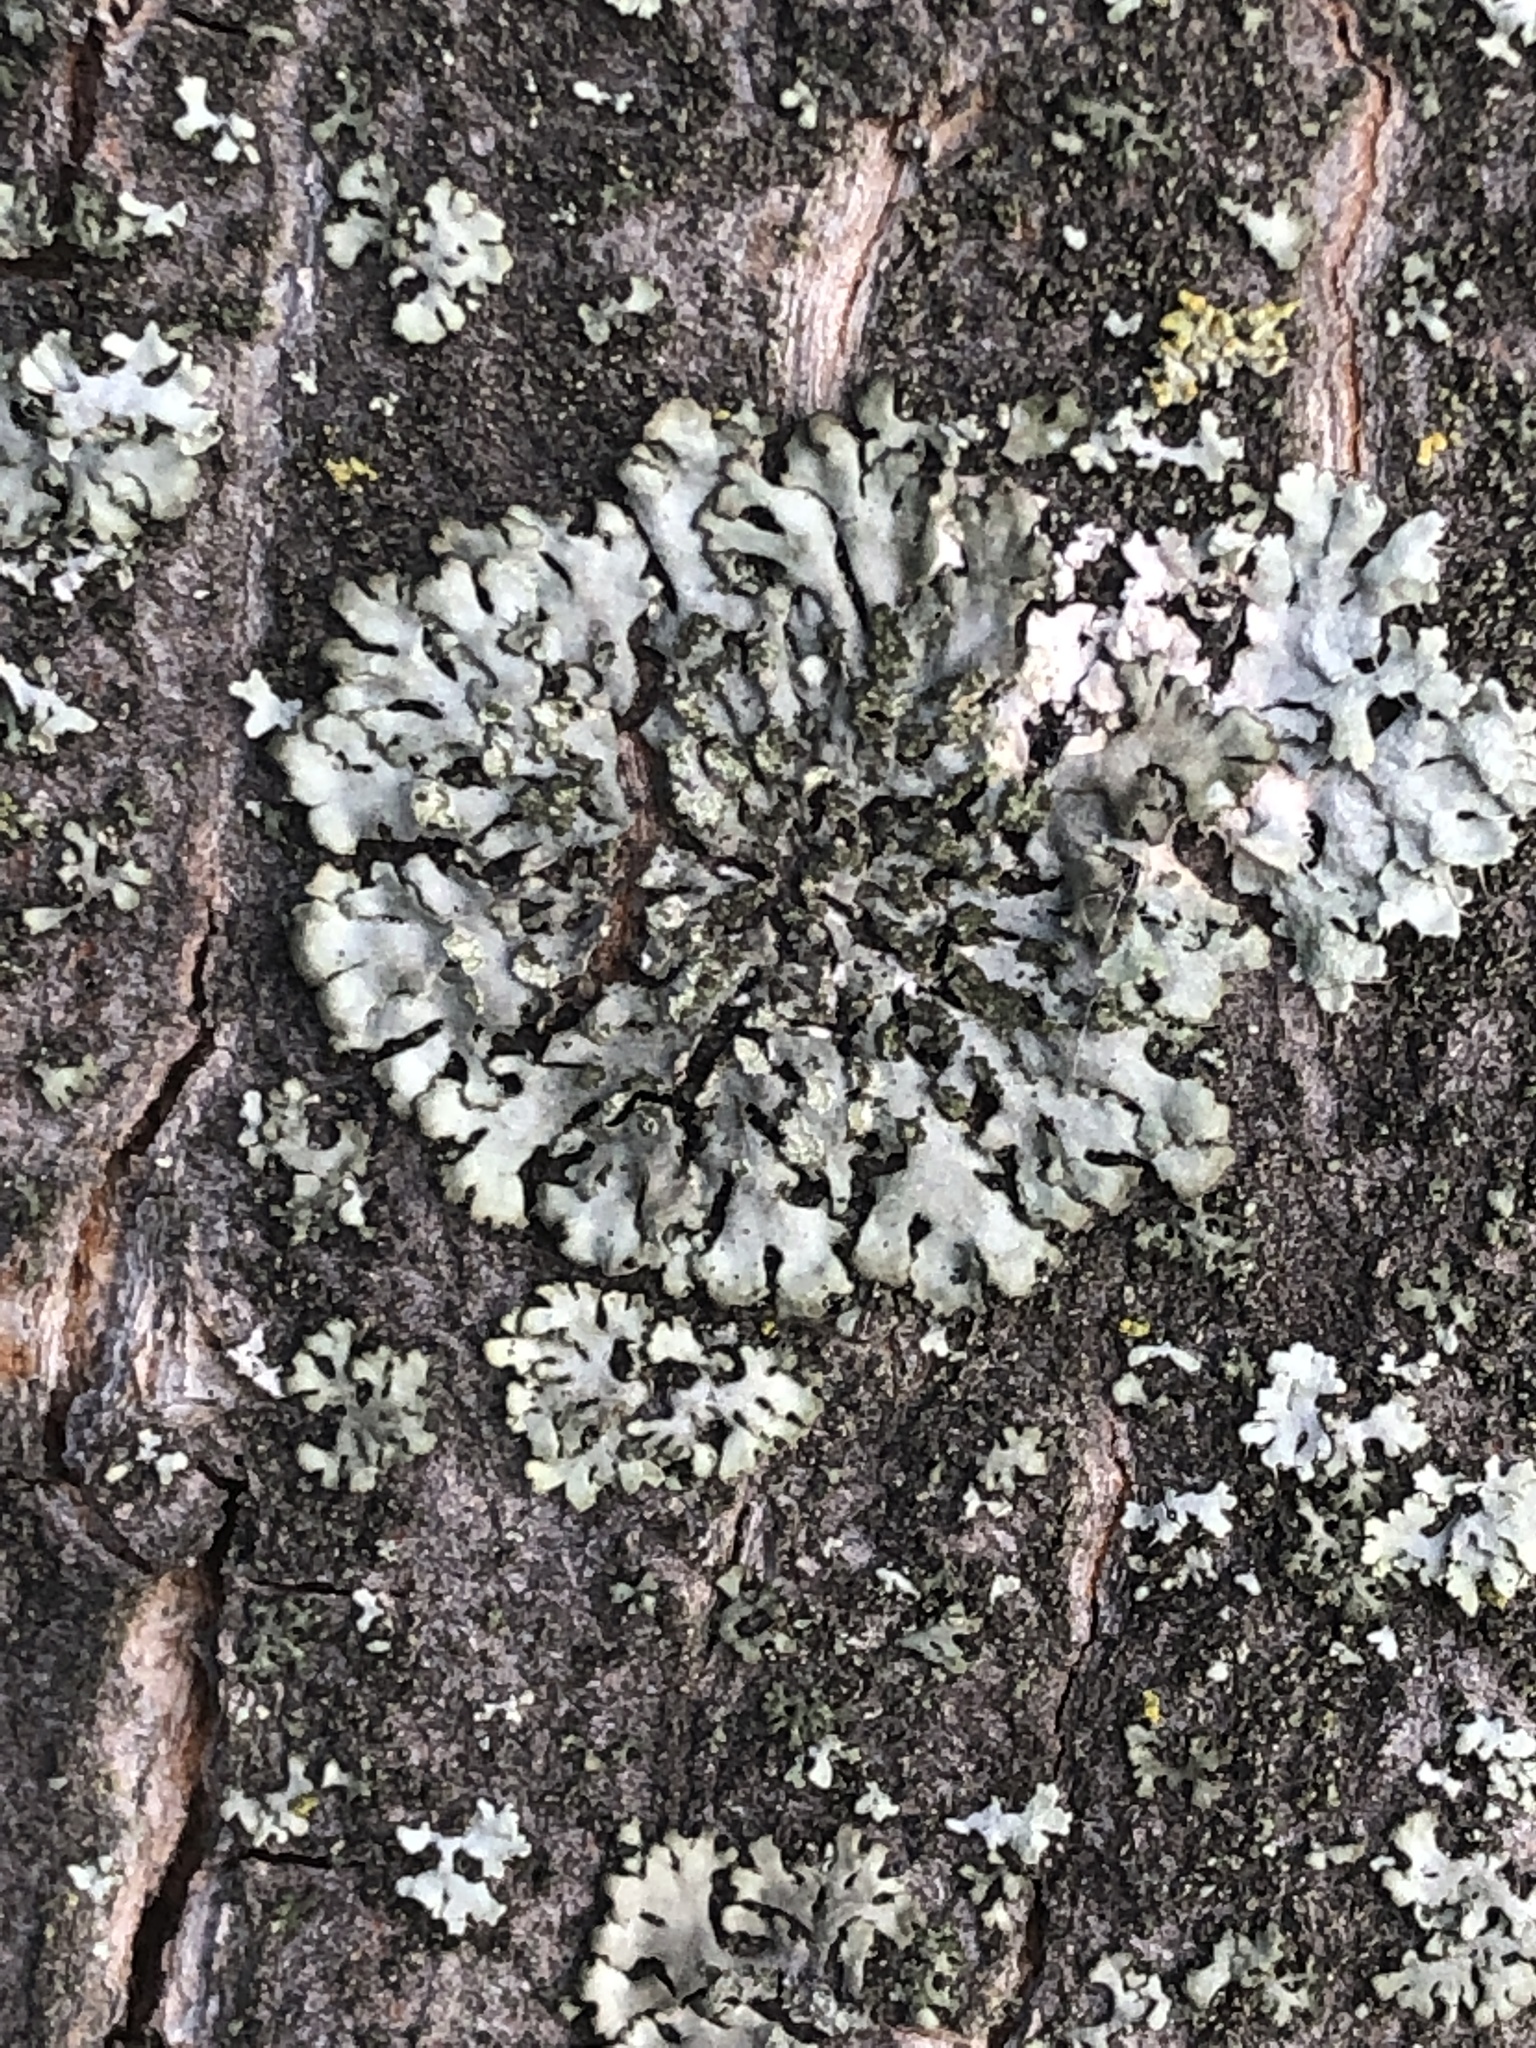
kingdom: Fungi
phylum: Ascomycota
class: Lecanoromycetes
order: Caliciales
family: Physciaceae
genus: Phaeophyscia
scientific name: Phaeophyscia orbicularis
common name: Mealy shadow lichen
